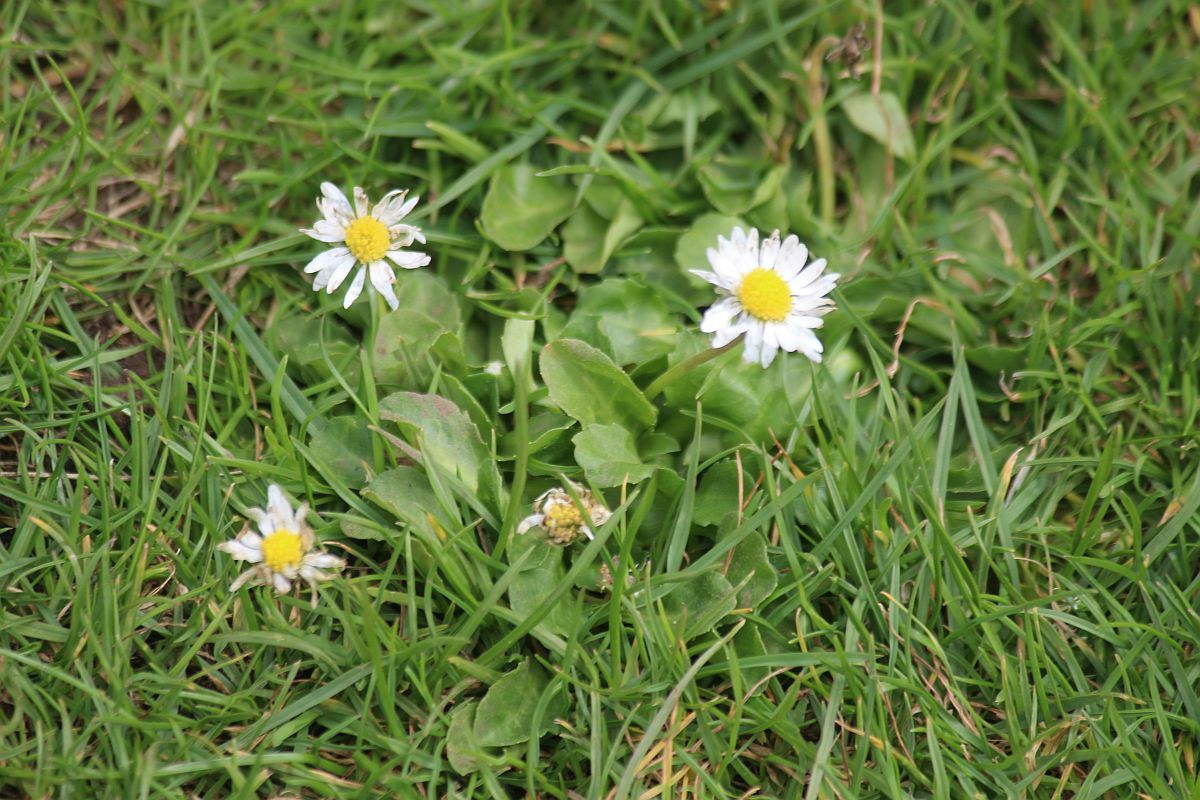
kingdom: Plantae
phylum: Tracheophyta
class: Magnoliopsida
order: Asterales
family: Asteraceae
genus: Bellis
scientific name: Bellis perennis
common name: Lawndaisy
